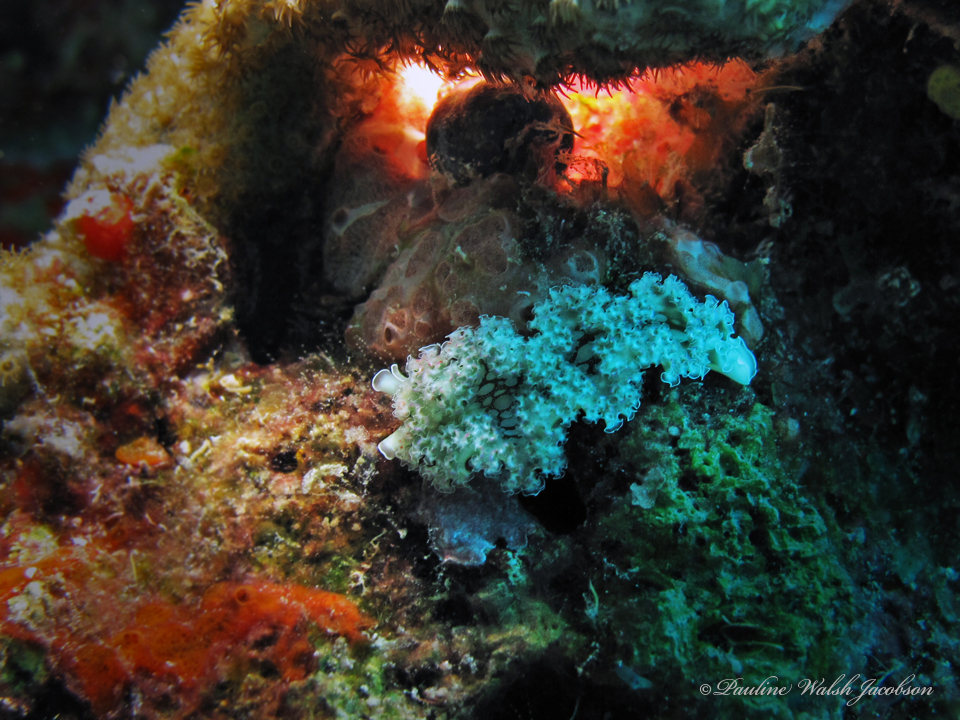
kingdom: Animalia
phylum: Mollusca
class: Gastropoda
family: Plakobranchidae
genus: Elysia
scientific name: Elysia crispata
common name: Lettuce slug
